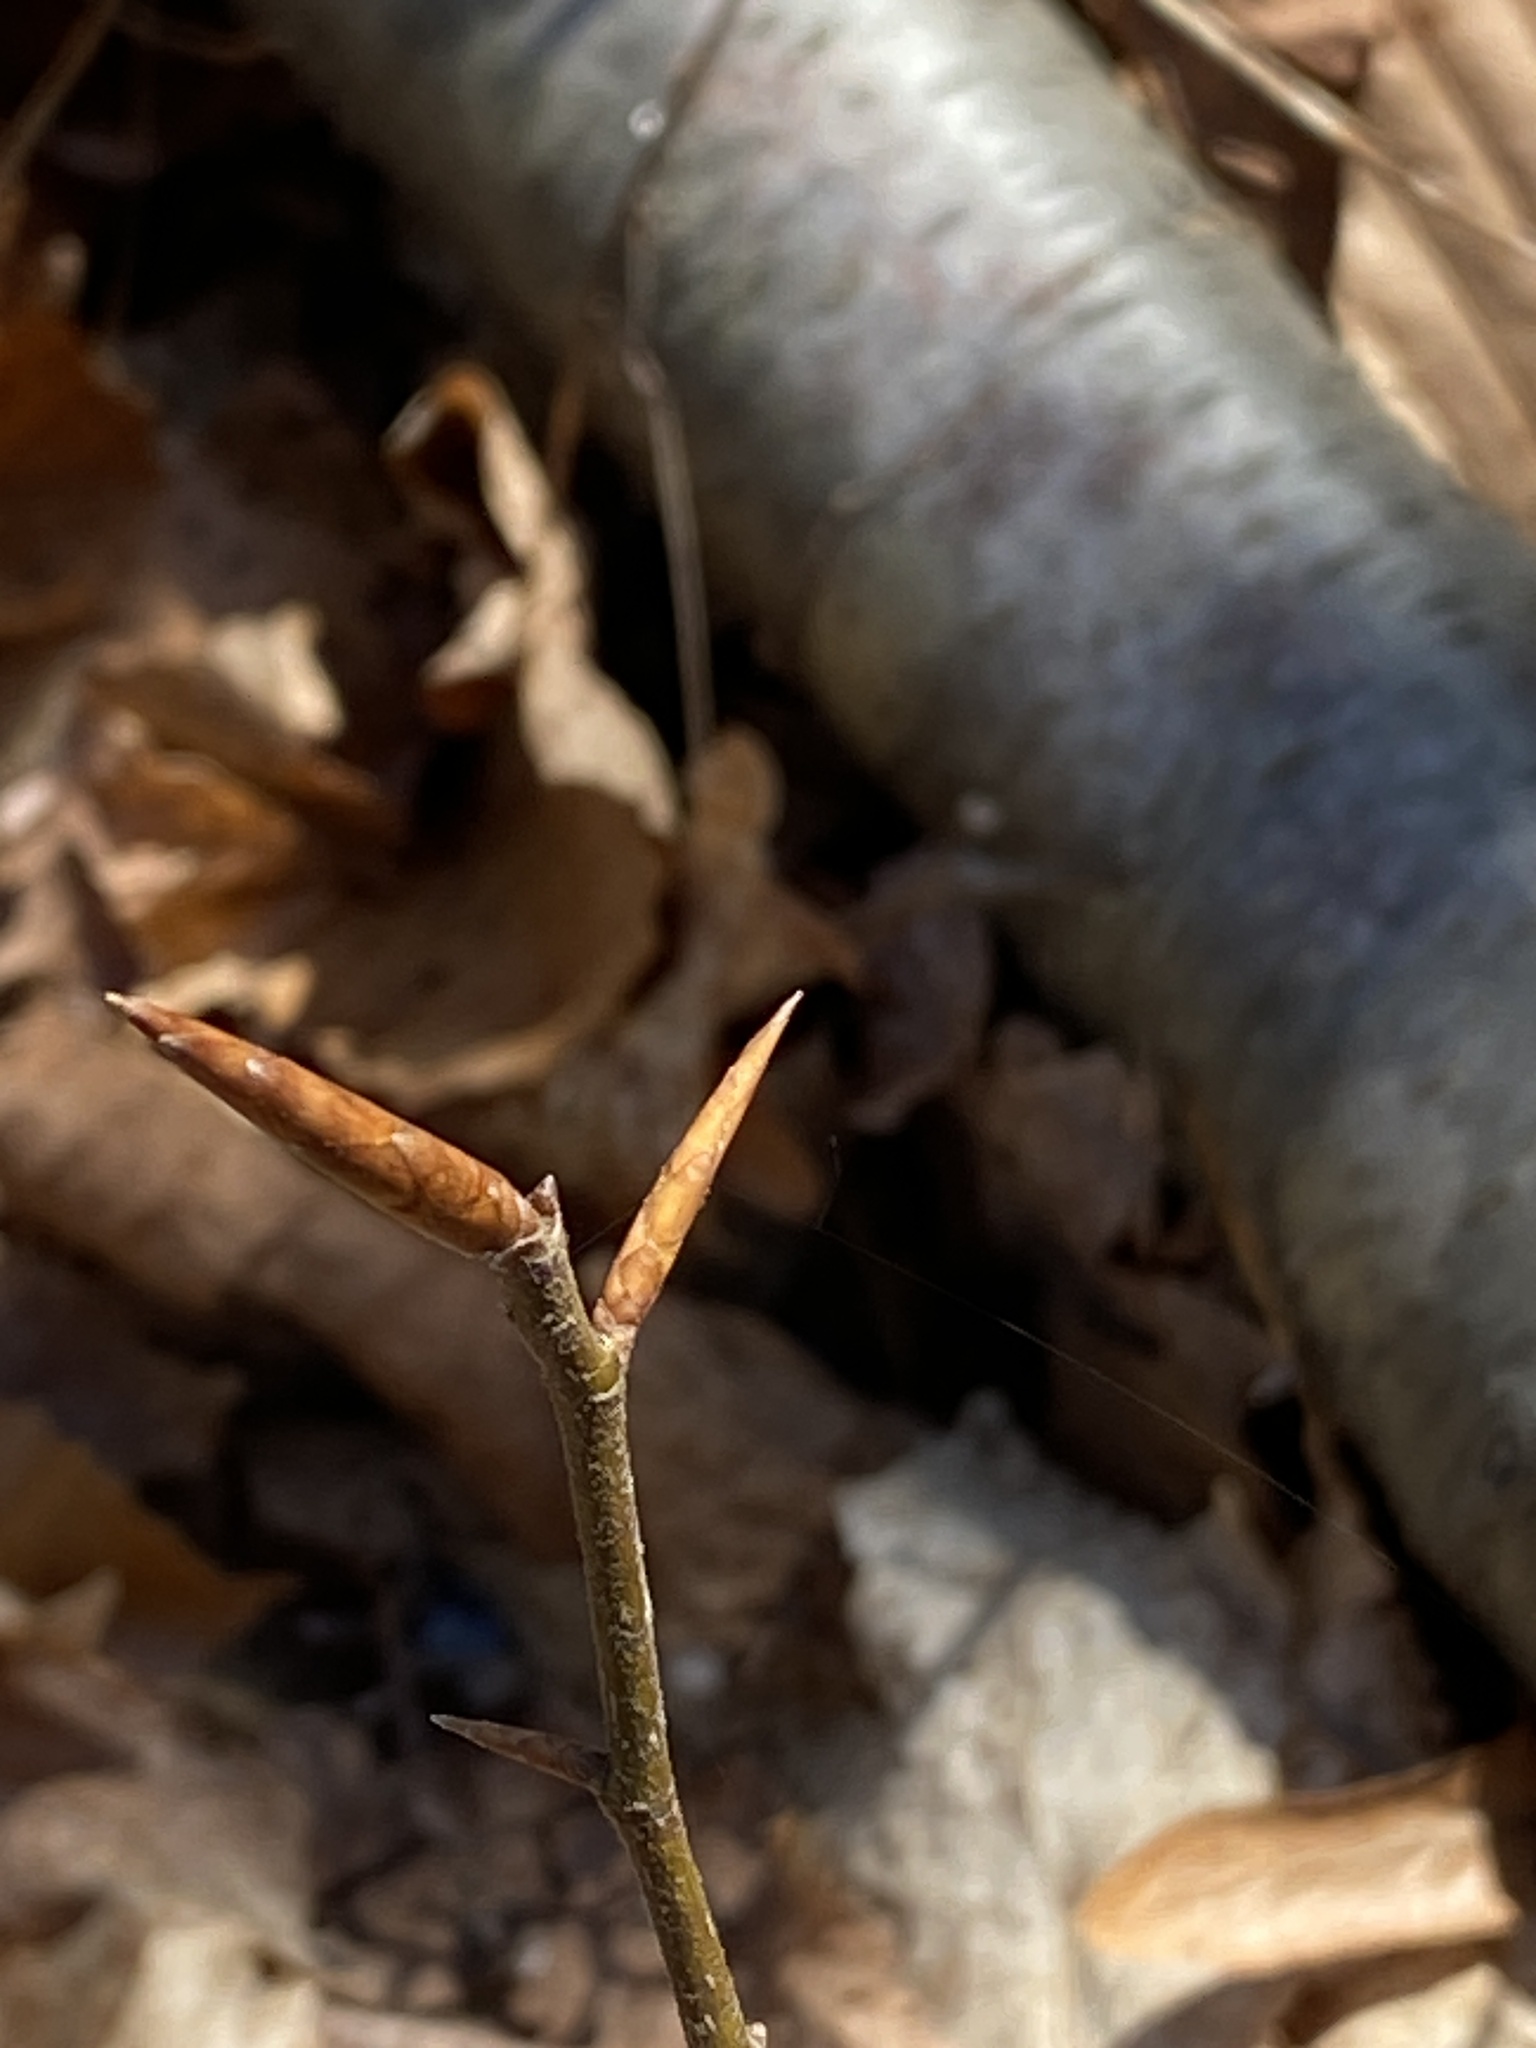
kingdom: Plantae
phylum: Tracheophyta
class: Magnoliopsida
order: Fagales
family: Fagaceae
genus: Fagus
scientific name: Fagus grandifolia
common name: American beech
